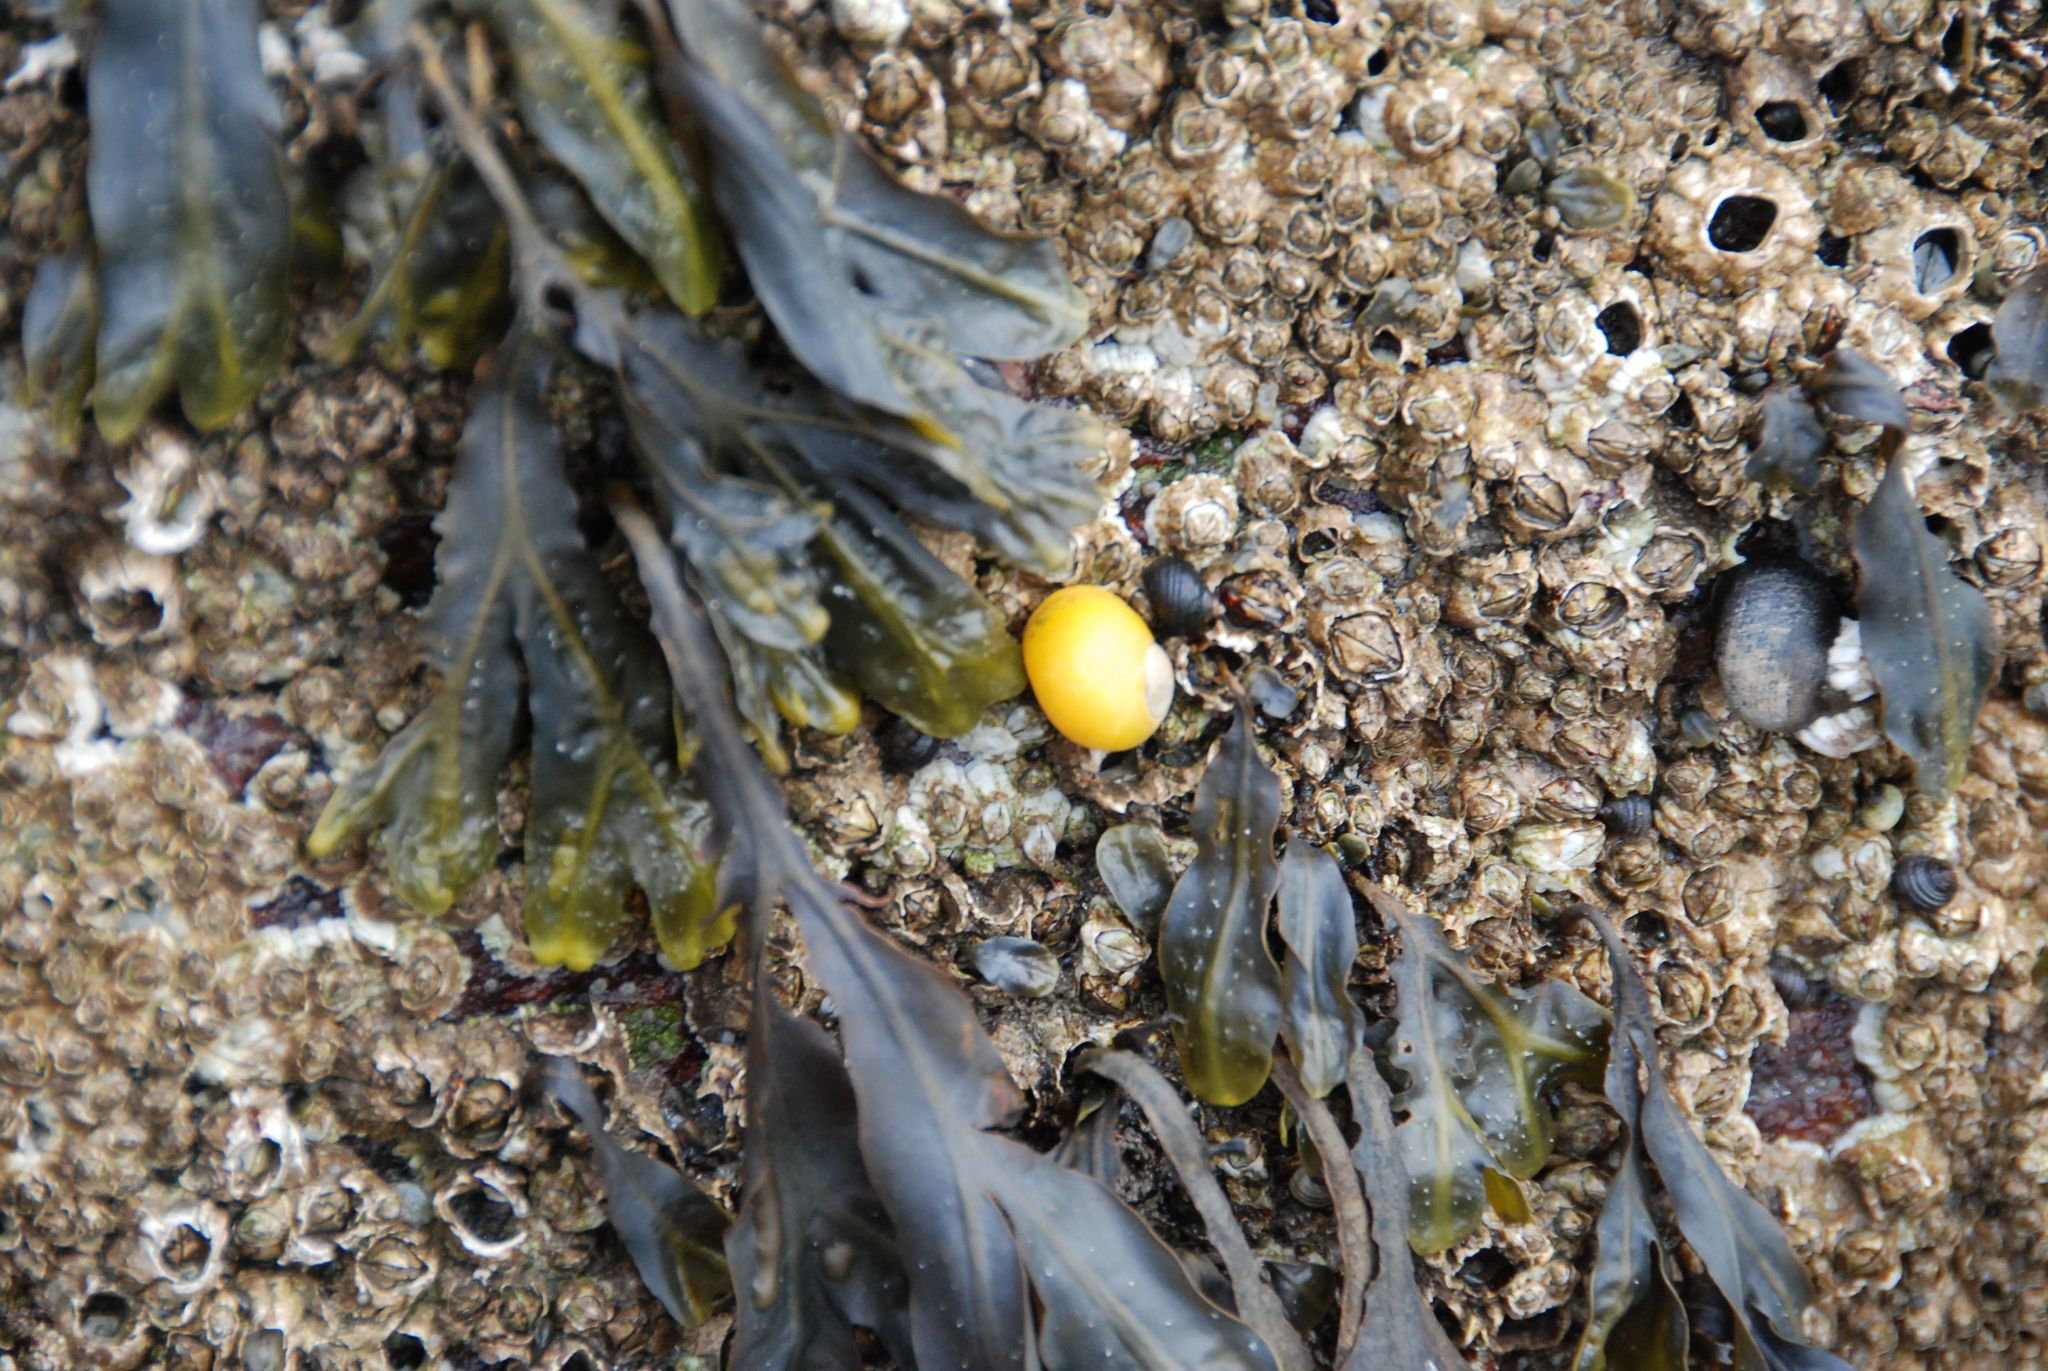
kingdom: Animalia
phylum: Mollusca
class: Gastropoda
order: Littorinimorpha
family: Littorinidae
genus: Littorina
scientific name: Littorina obtusata
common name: Flat periwinkle
